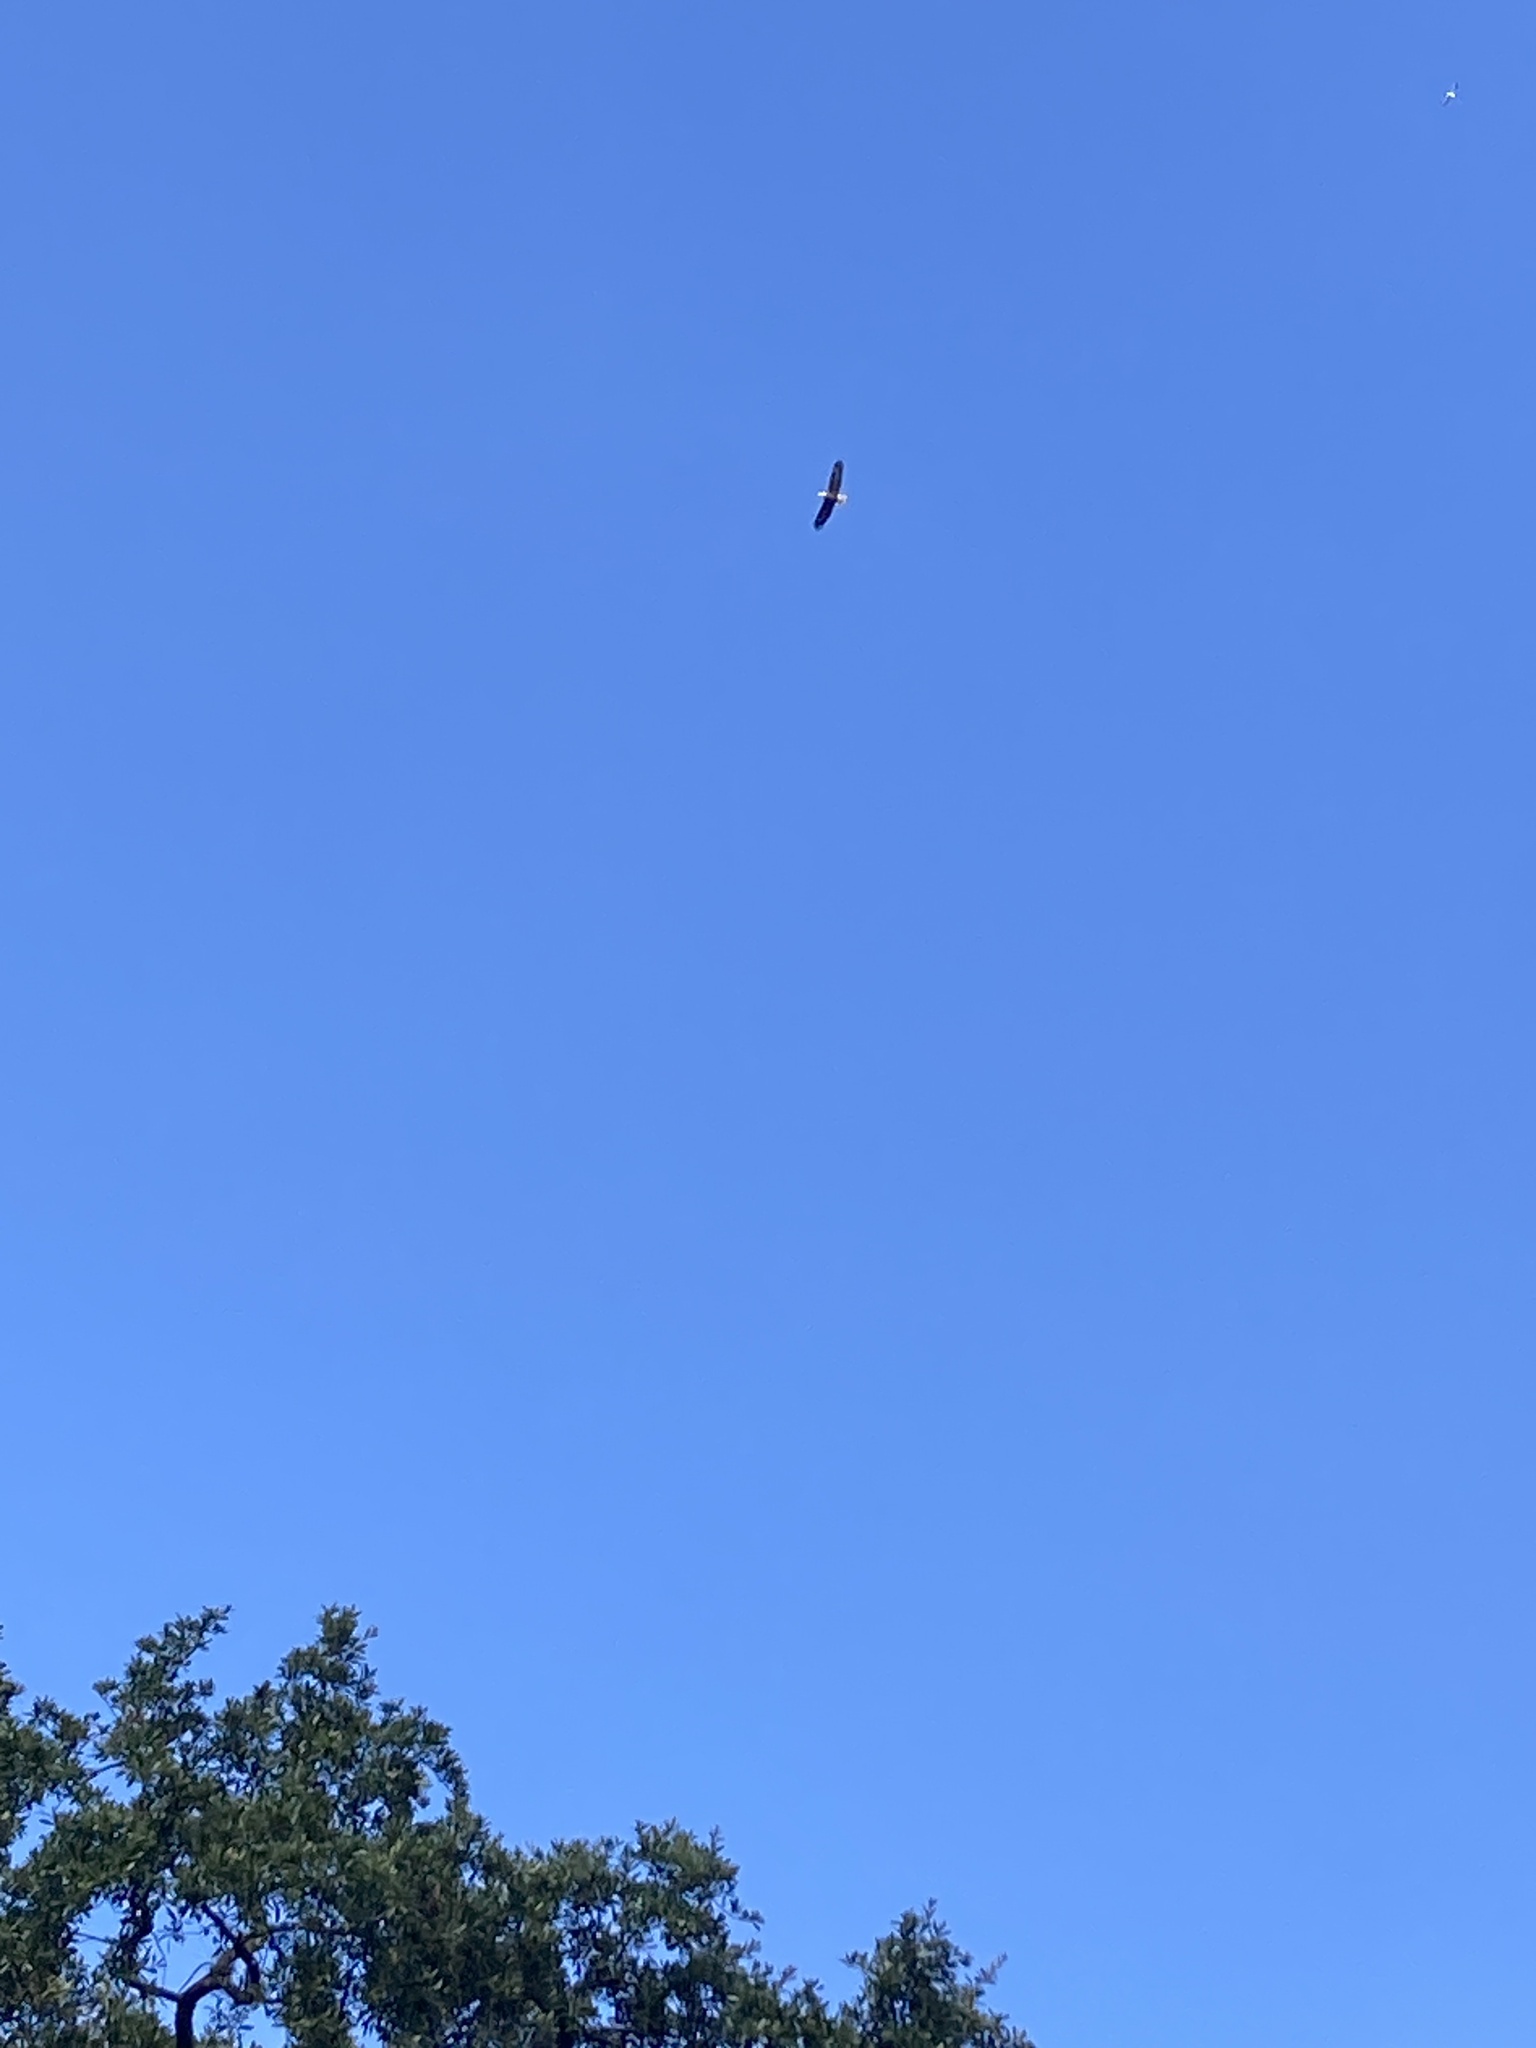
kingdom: Animalia
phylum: Chordata
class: Aves
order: Accipitriformes
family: Accipitridae
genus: Haliaeetus
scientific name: Haliaeetus leucocephalus
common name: Bald eagle
